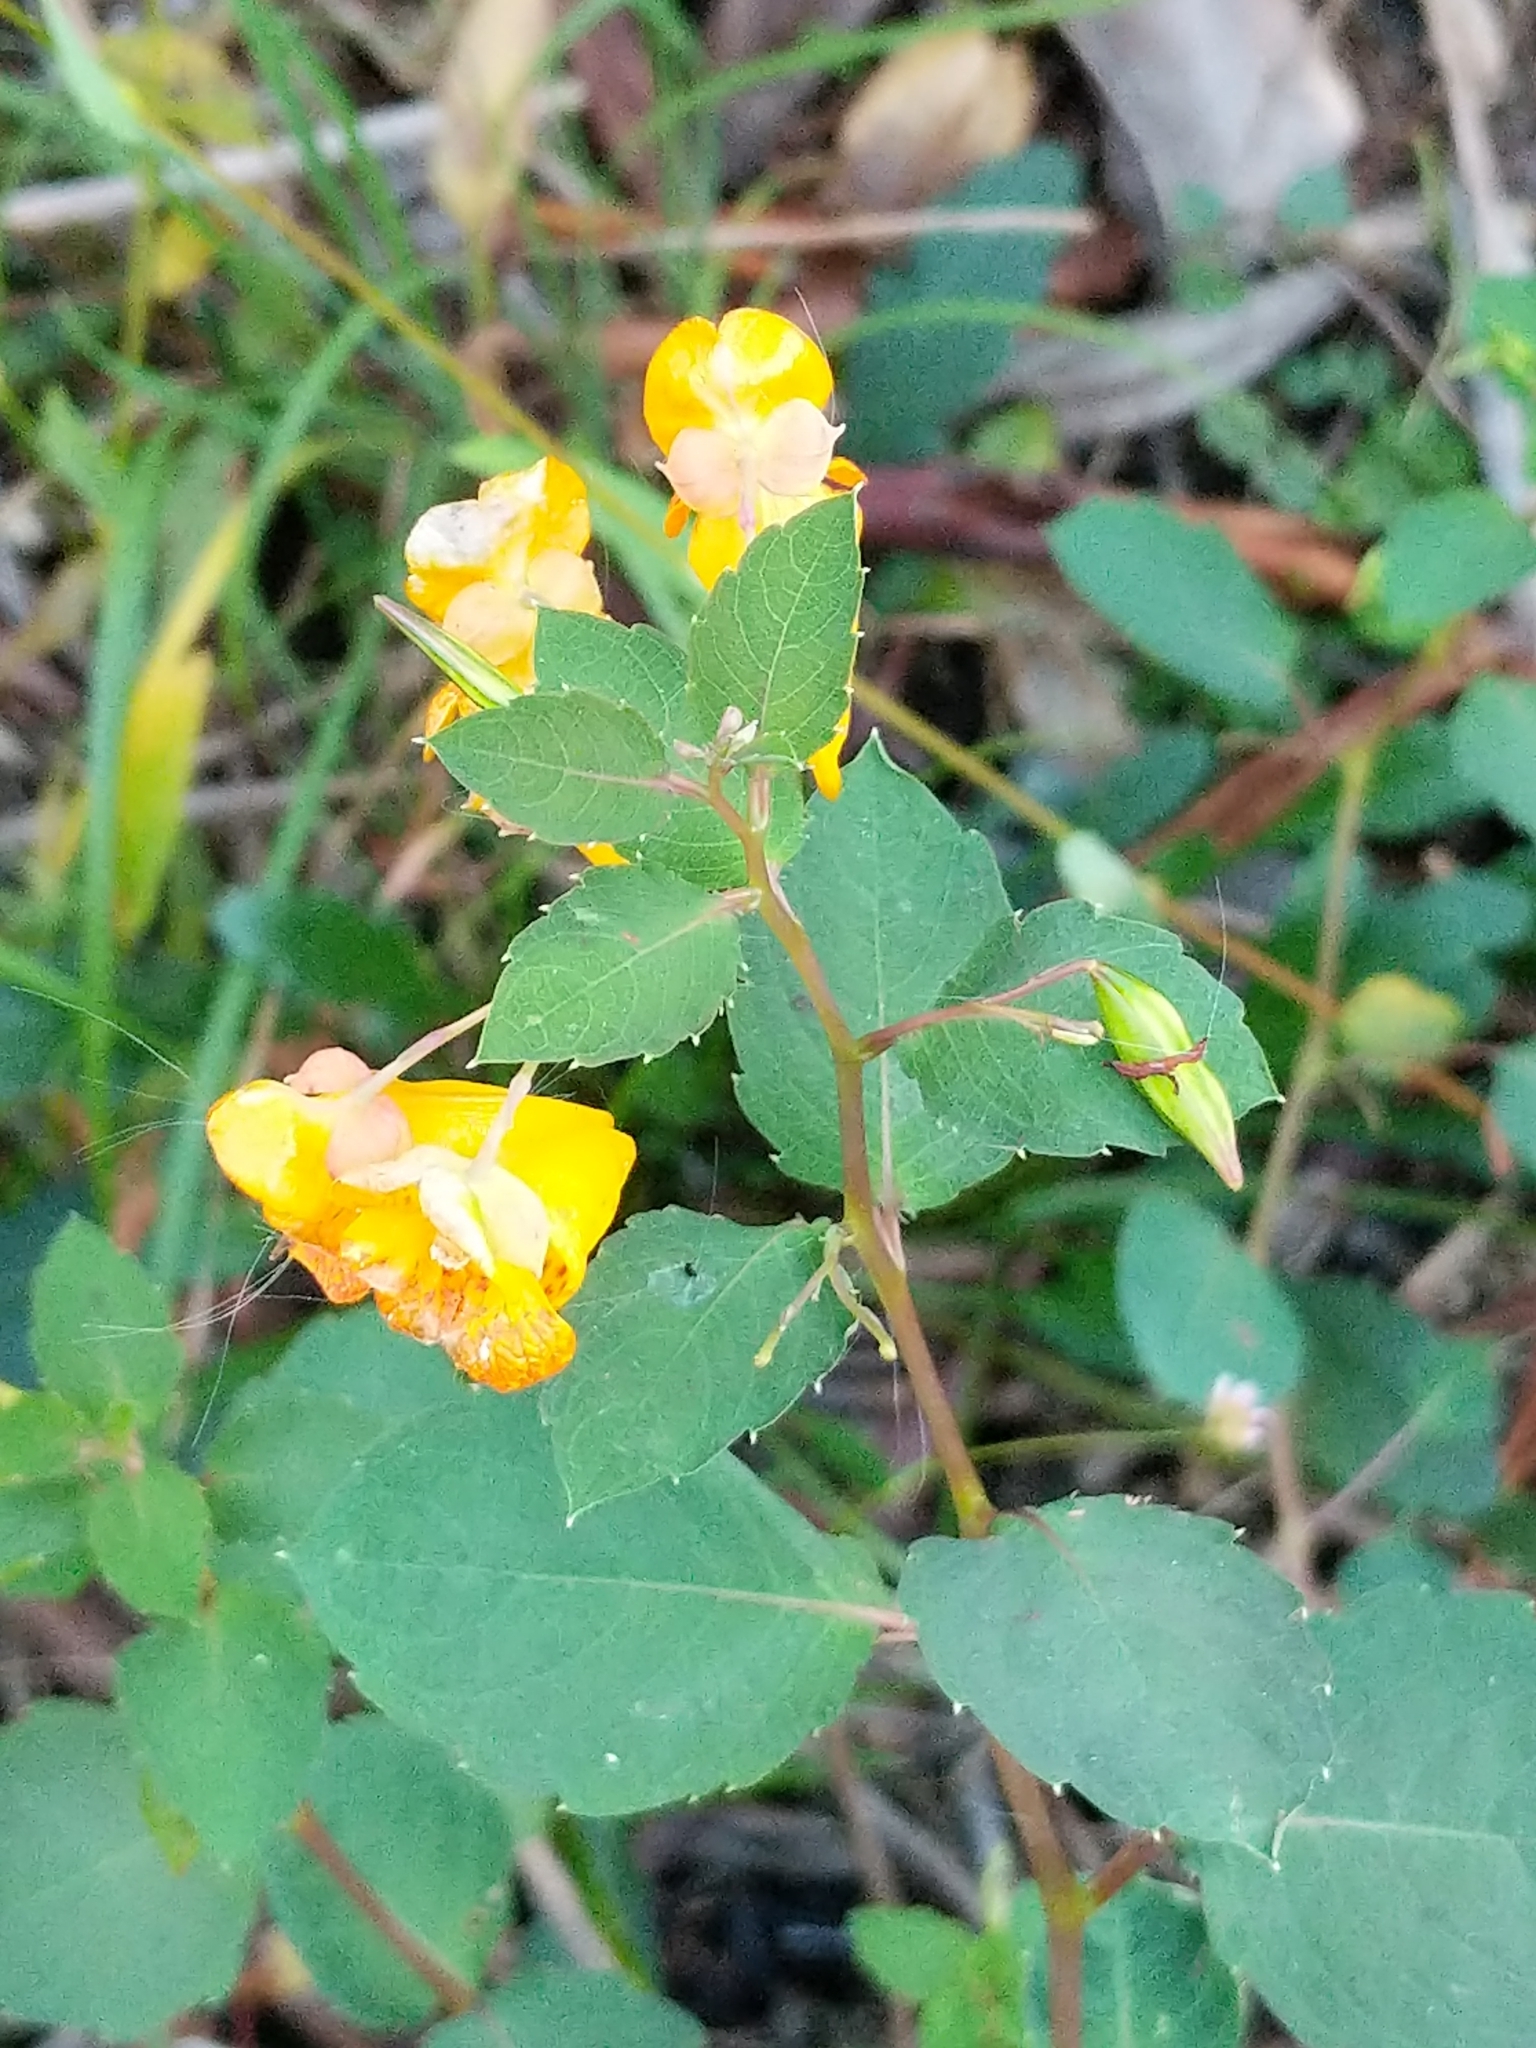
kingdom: Plantae
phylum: Tracheophyta
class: Magnoliopsida
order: Ericales
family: Balsaminaceae
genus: Impatiens
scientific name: Impatiens capensis
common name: Orange balsam
